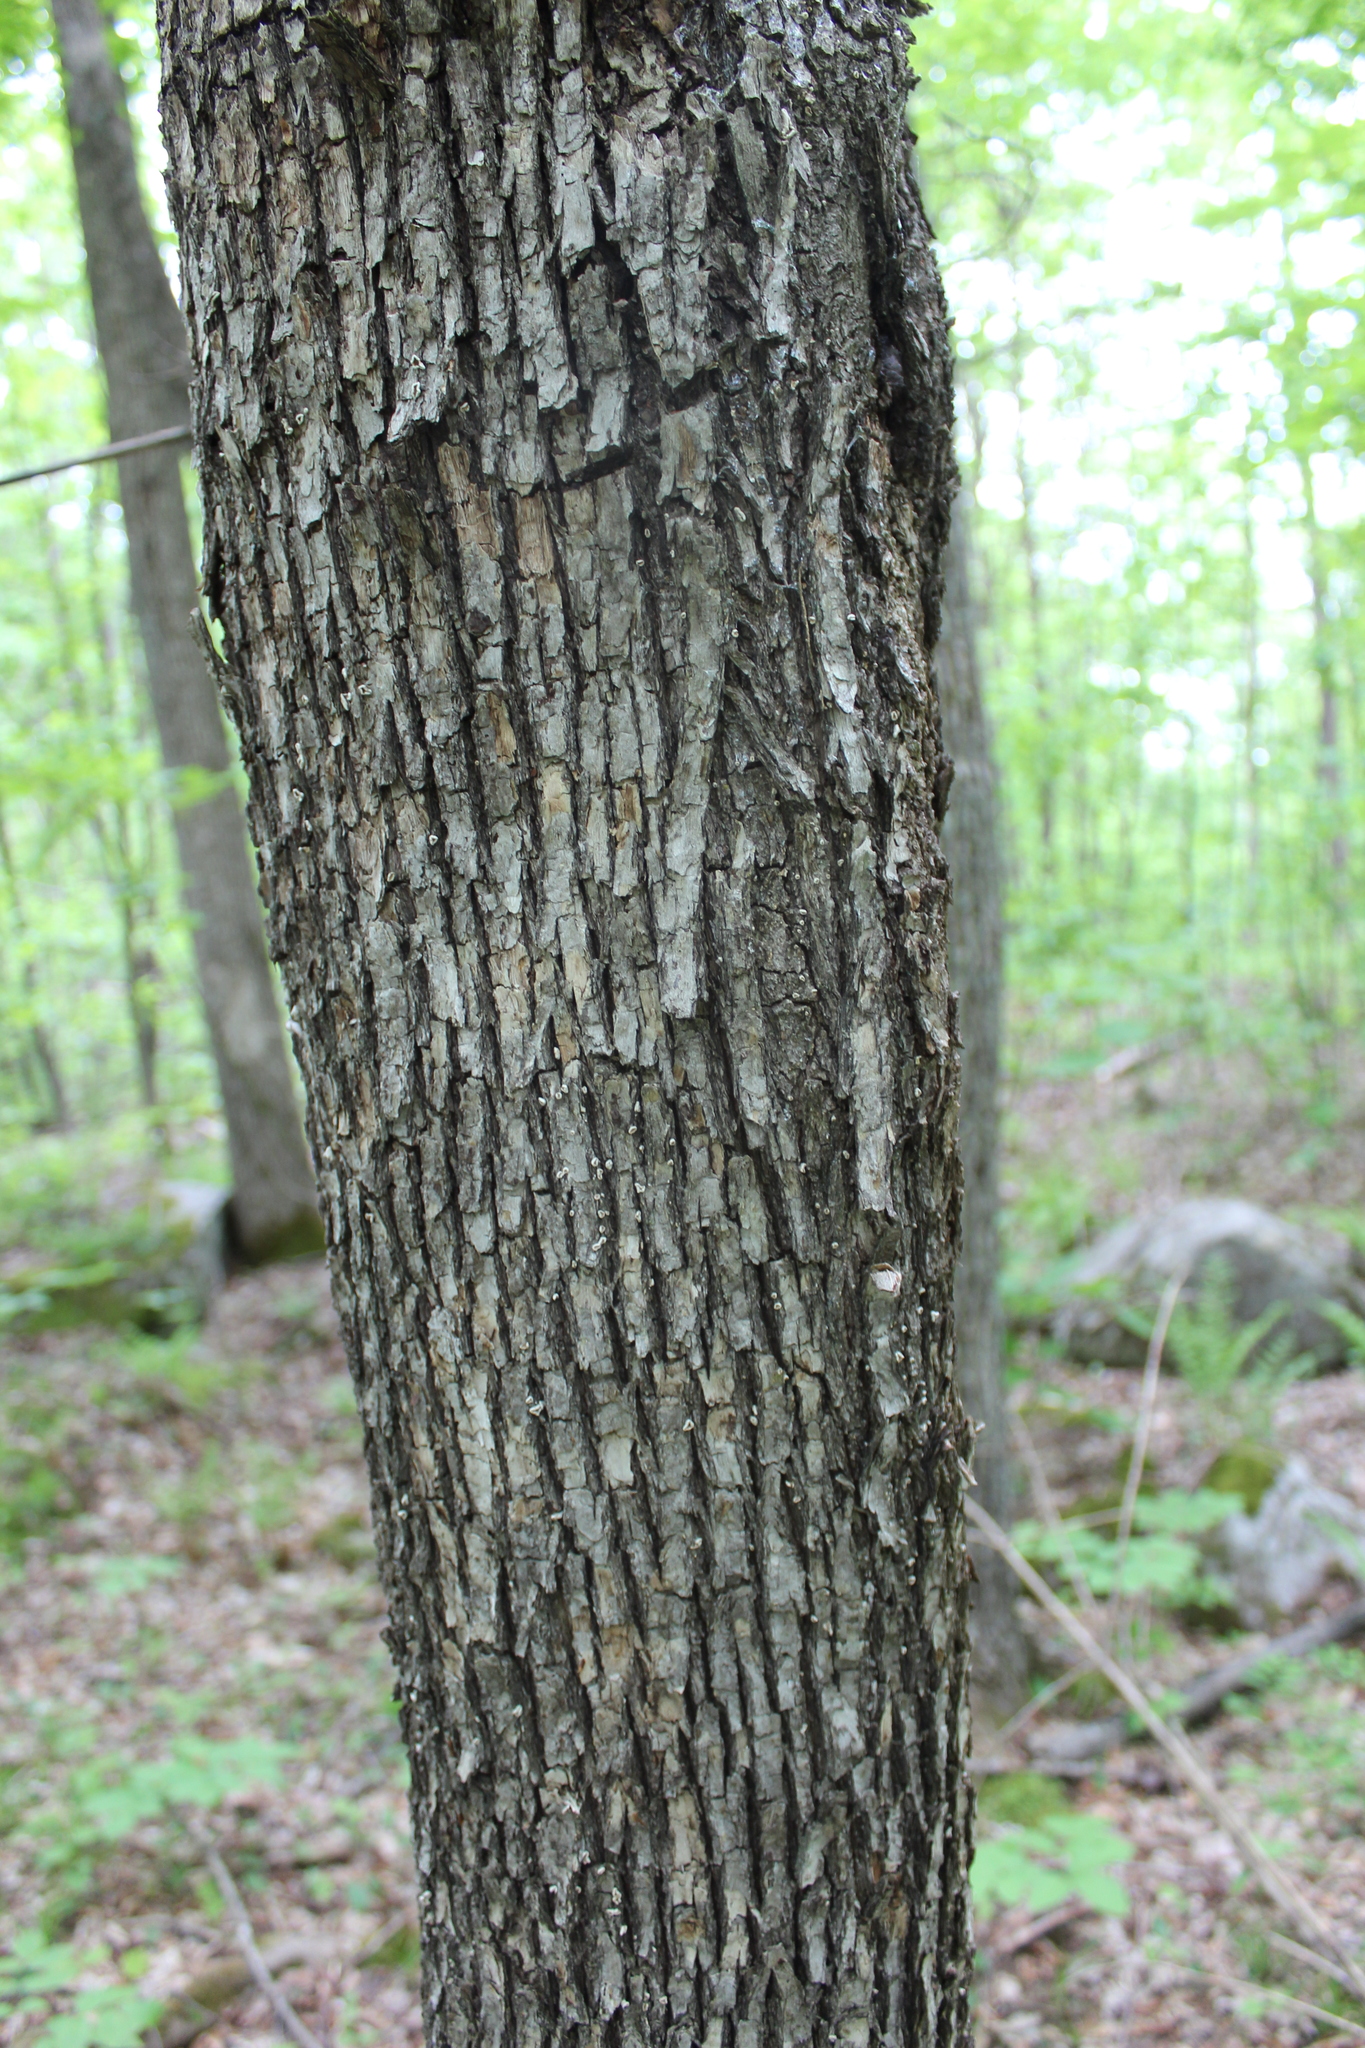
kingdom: Plantae
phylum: Tracheophyta
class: Magnoliopsida
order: Fagales
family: Betulaceae
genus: Ostrya
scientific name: Ostrya virginiana
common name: Ironwood
